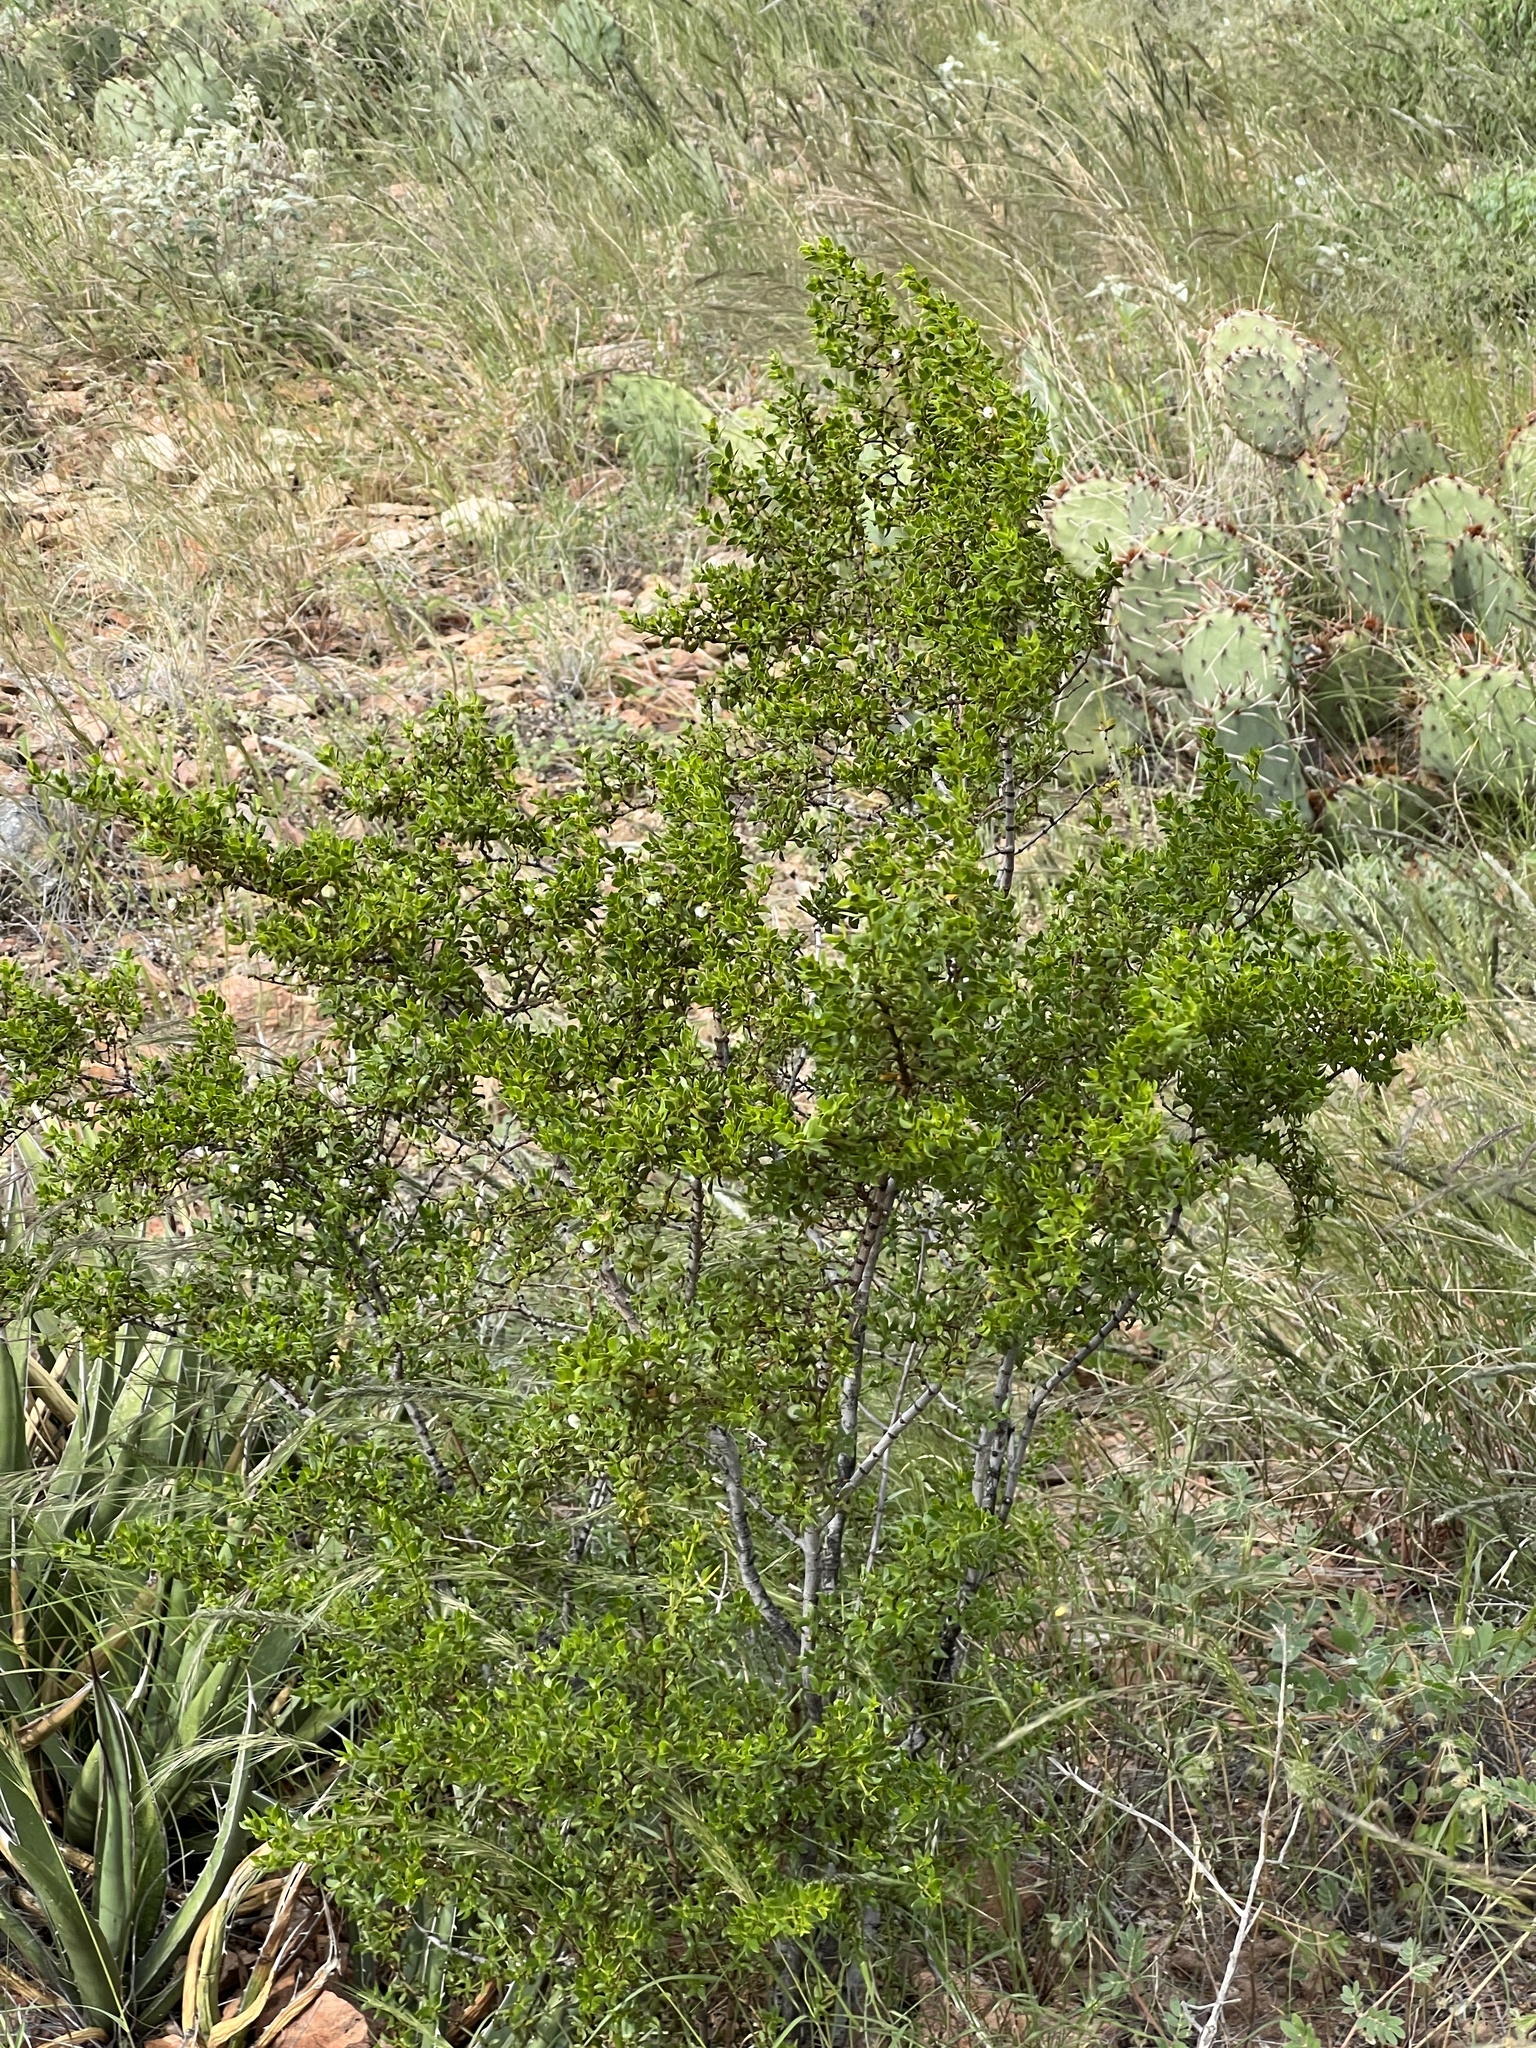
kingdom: Plantae
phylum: Tracheophyta
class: Magnoliopsida
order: Zygophyllales
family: Zygophyllaceae
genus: Larrea
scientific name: Larrea tridentata
